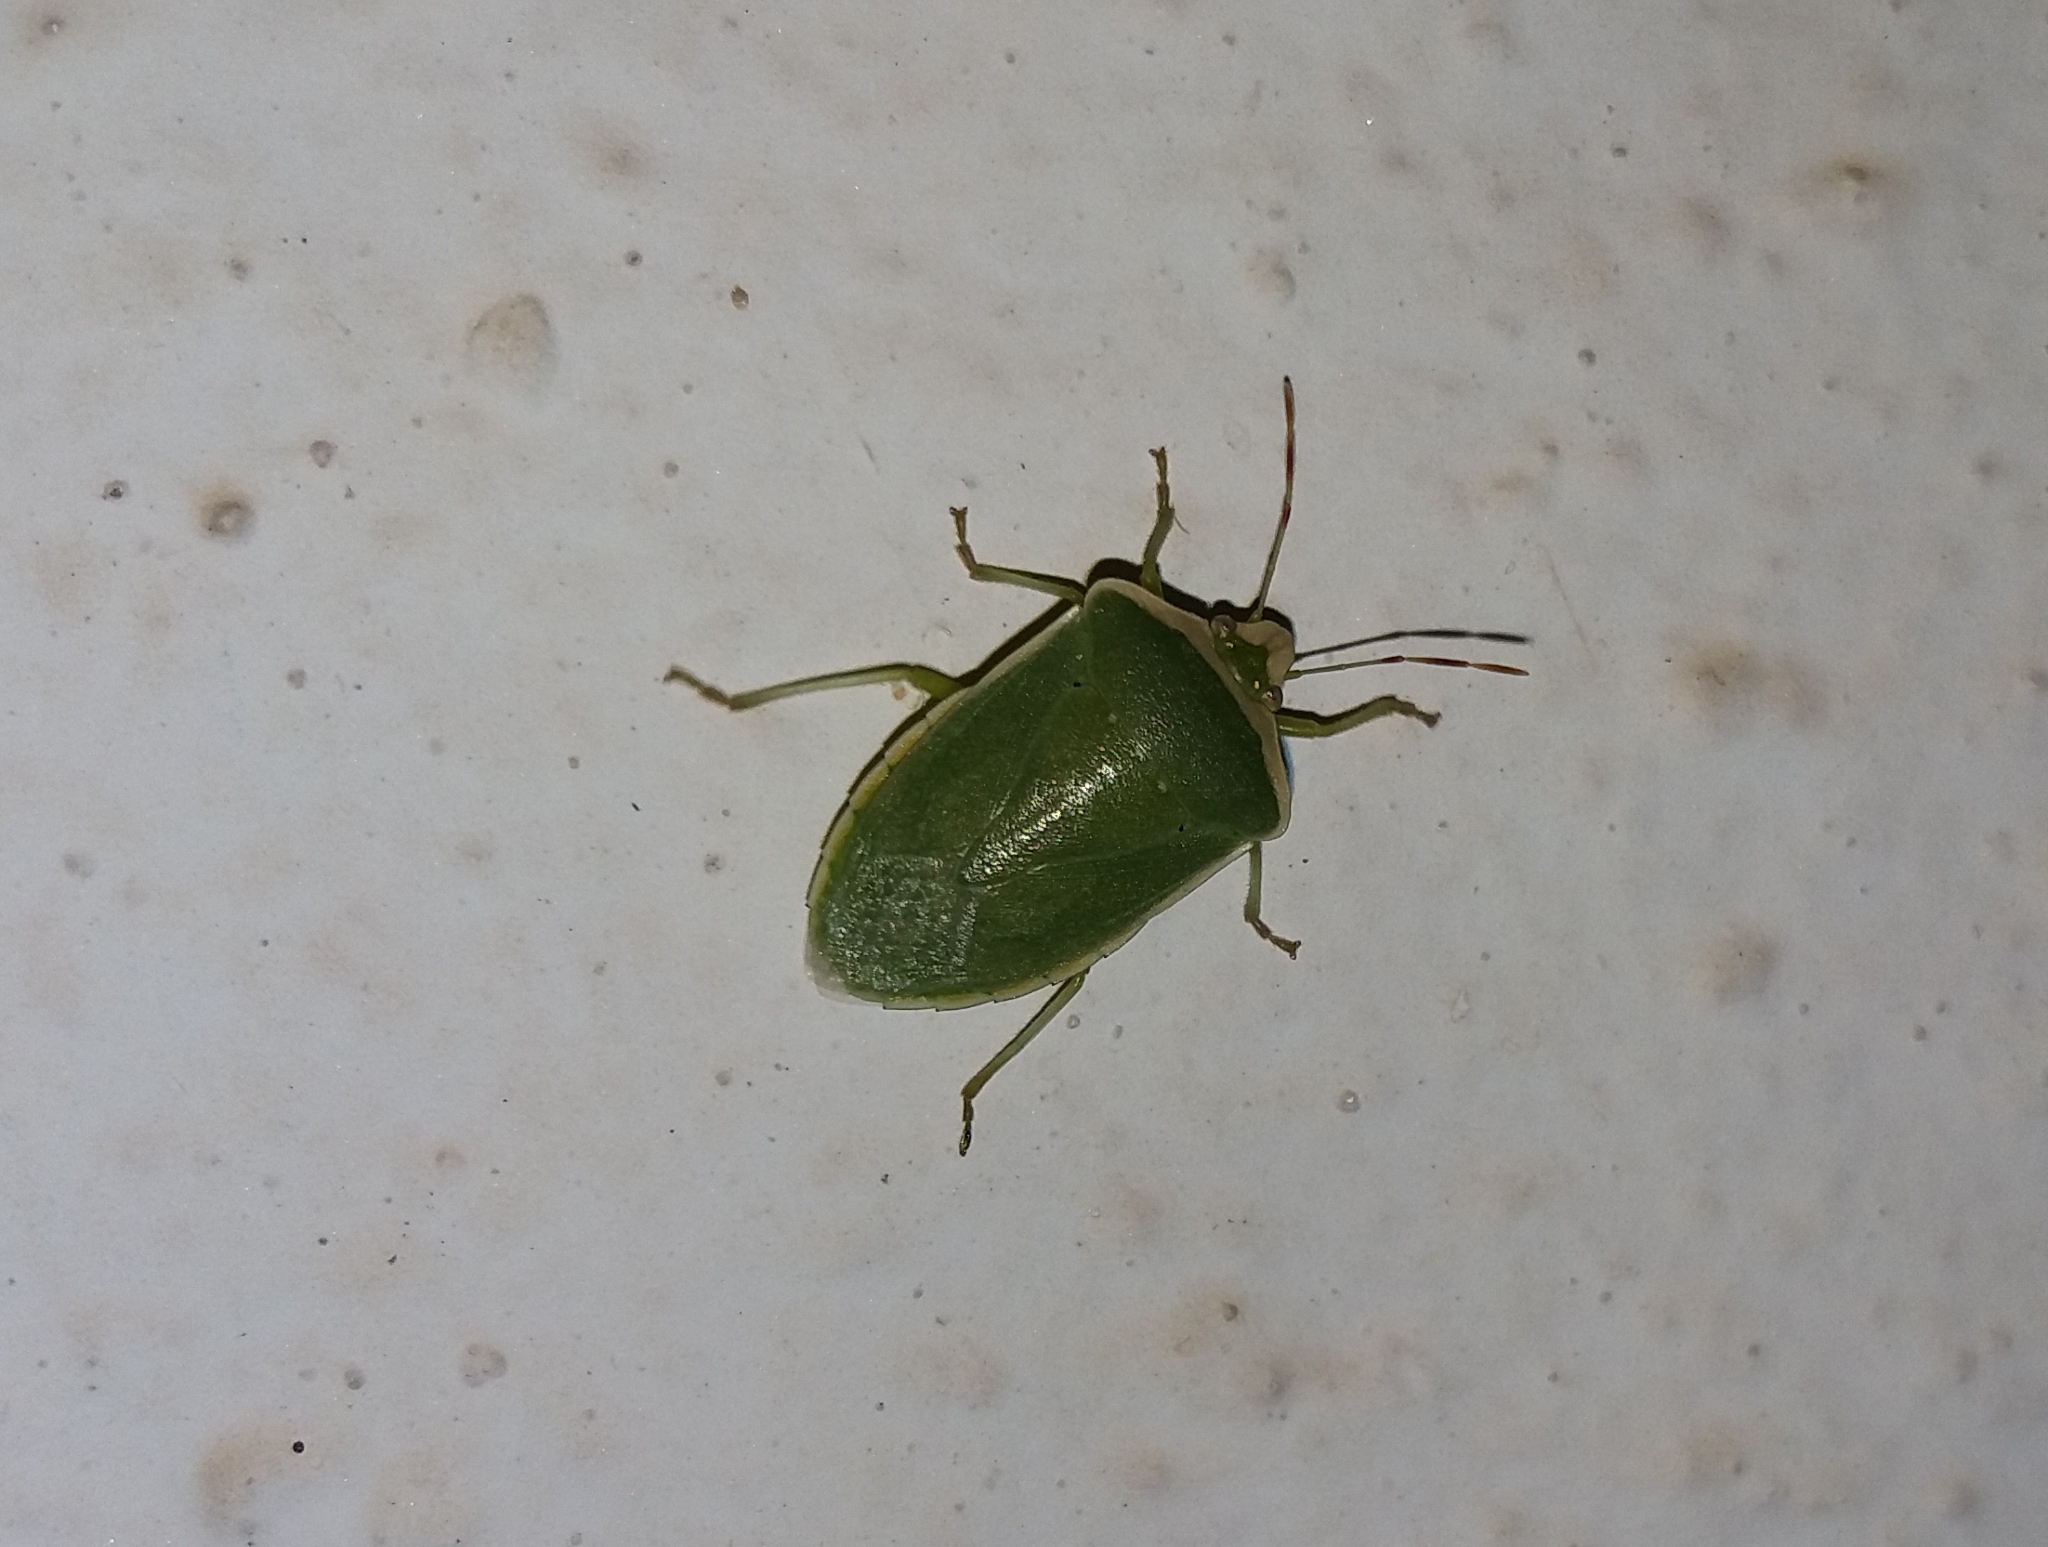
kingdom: Animalia
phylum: Arthropoda
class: Insecta
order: Hemiptera
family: Pentatomidae
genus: Nezara
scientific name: Nezara viridula
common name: Southern green stink bug
